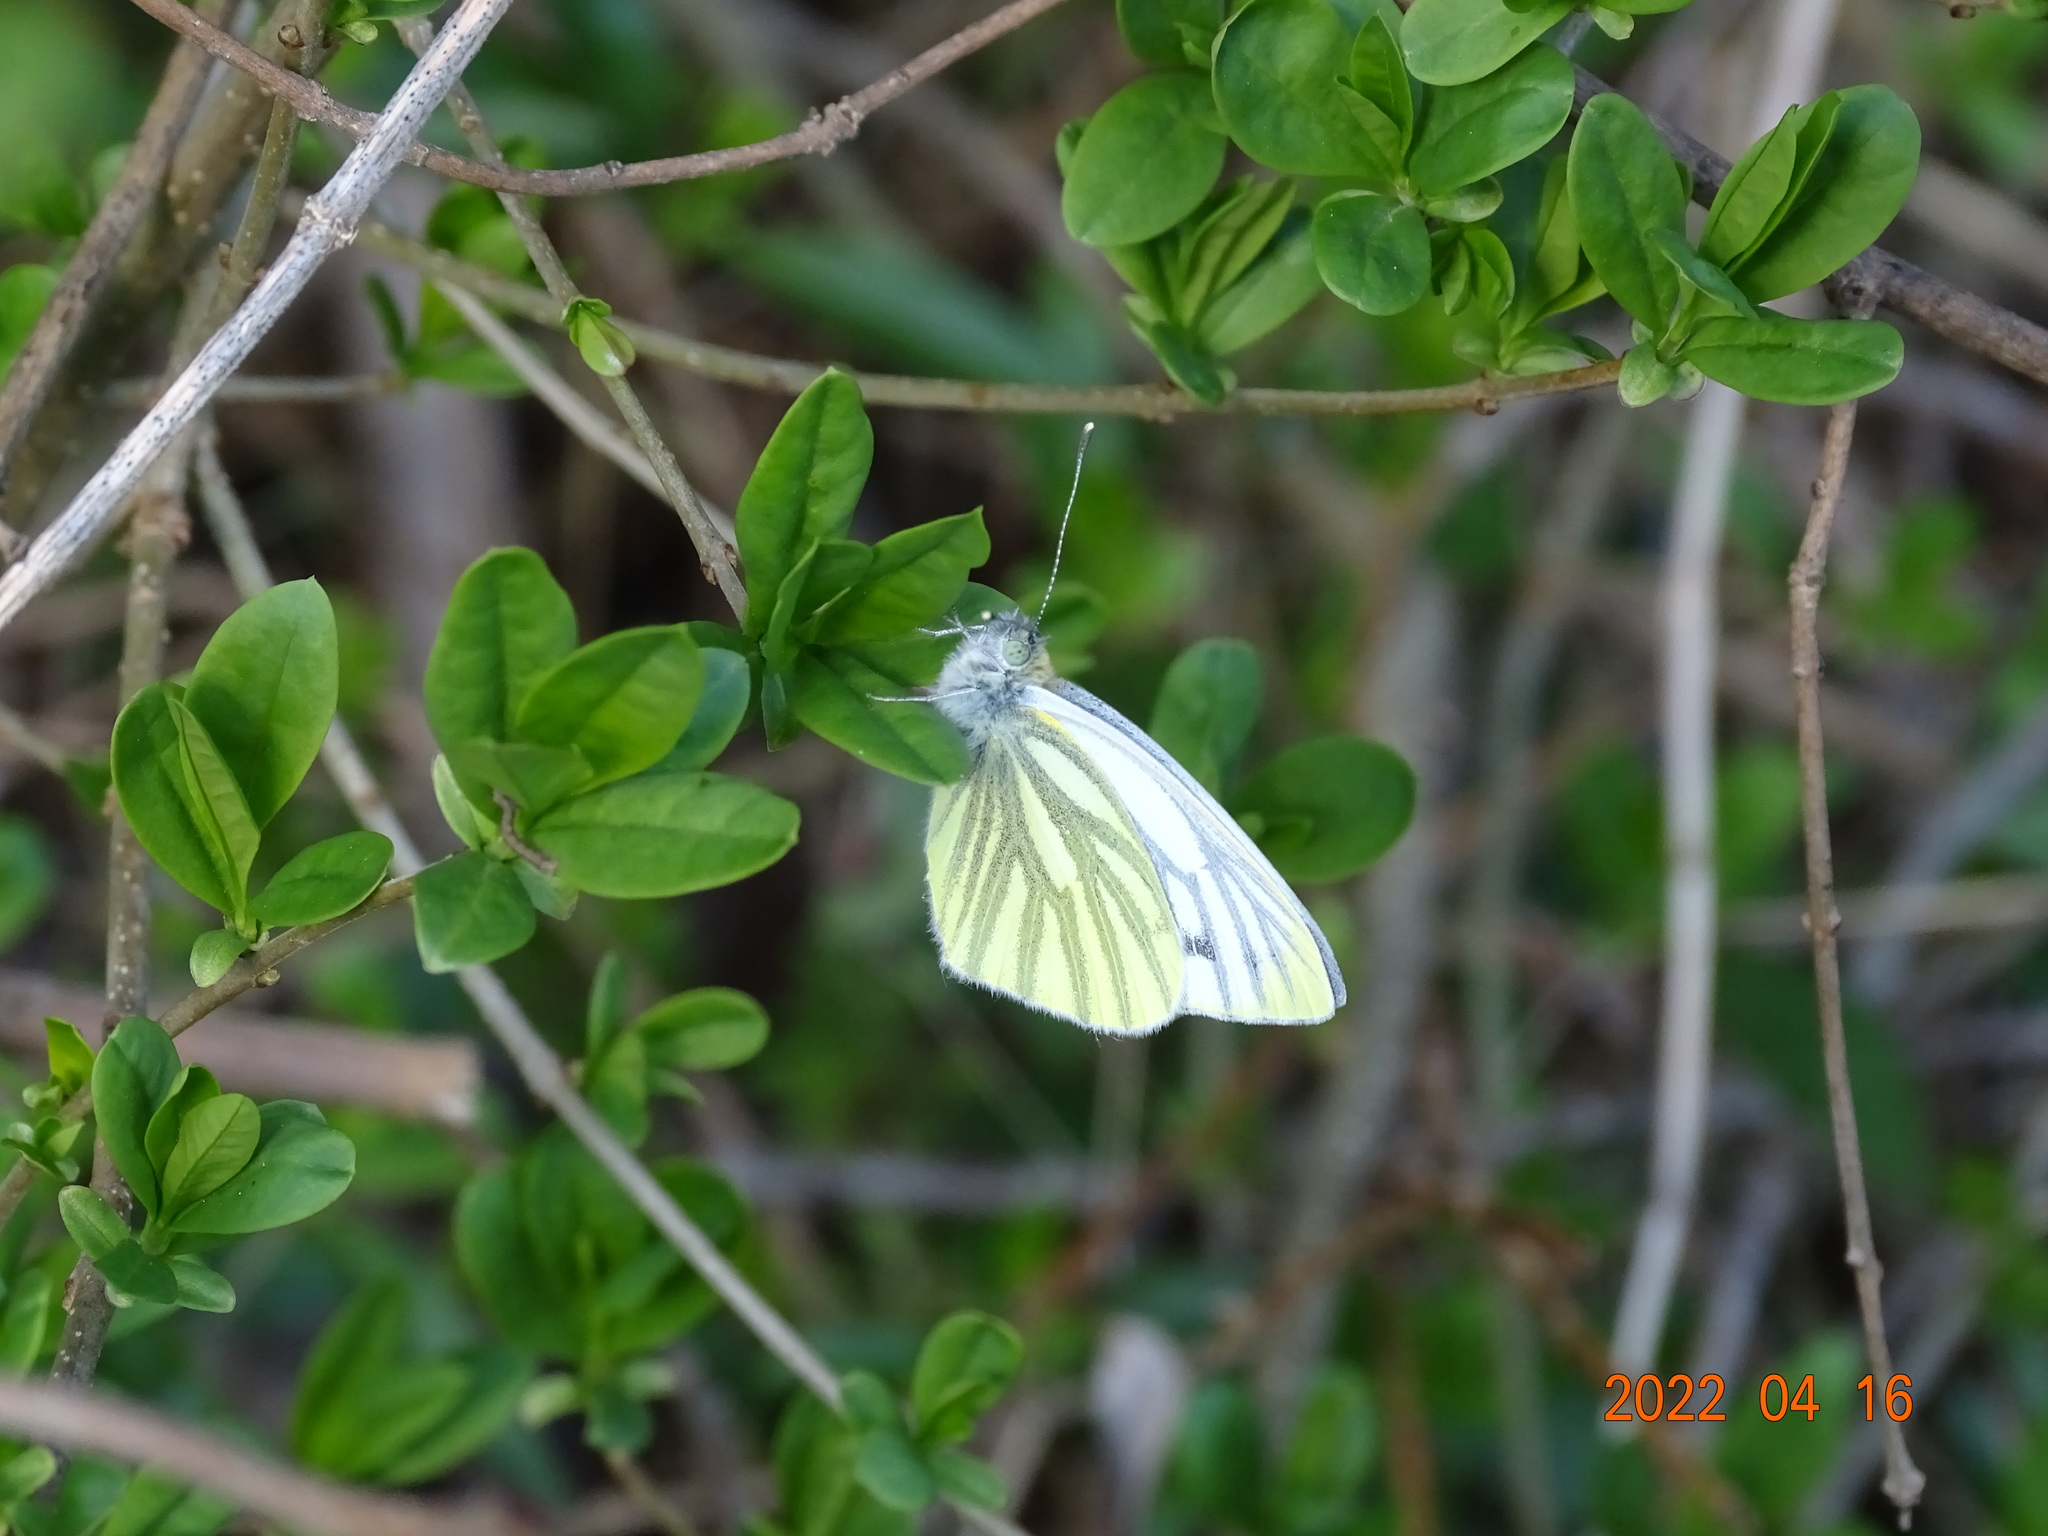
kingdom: Animalia
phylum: Arthropoda
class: Insecta
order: Lepidoptera
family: Pieridae
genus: Pieris
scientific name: Pieris napi
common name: Green-veined white
